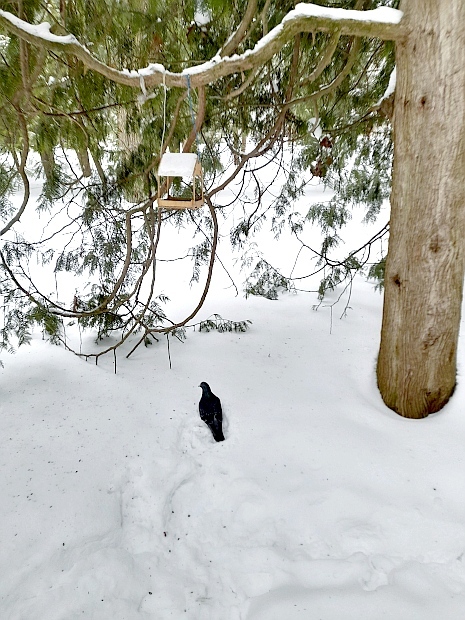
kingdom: Animalia
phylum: Chordata
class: Aves
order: Columbiformes
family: Columbidae
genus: Columba
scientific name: Columba livia
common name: Rock pigeon
